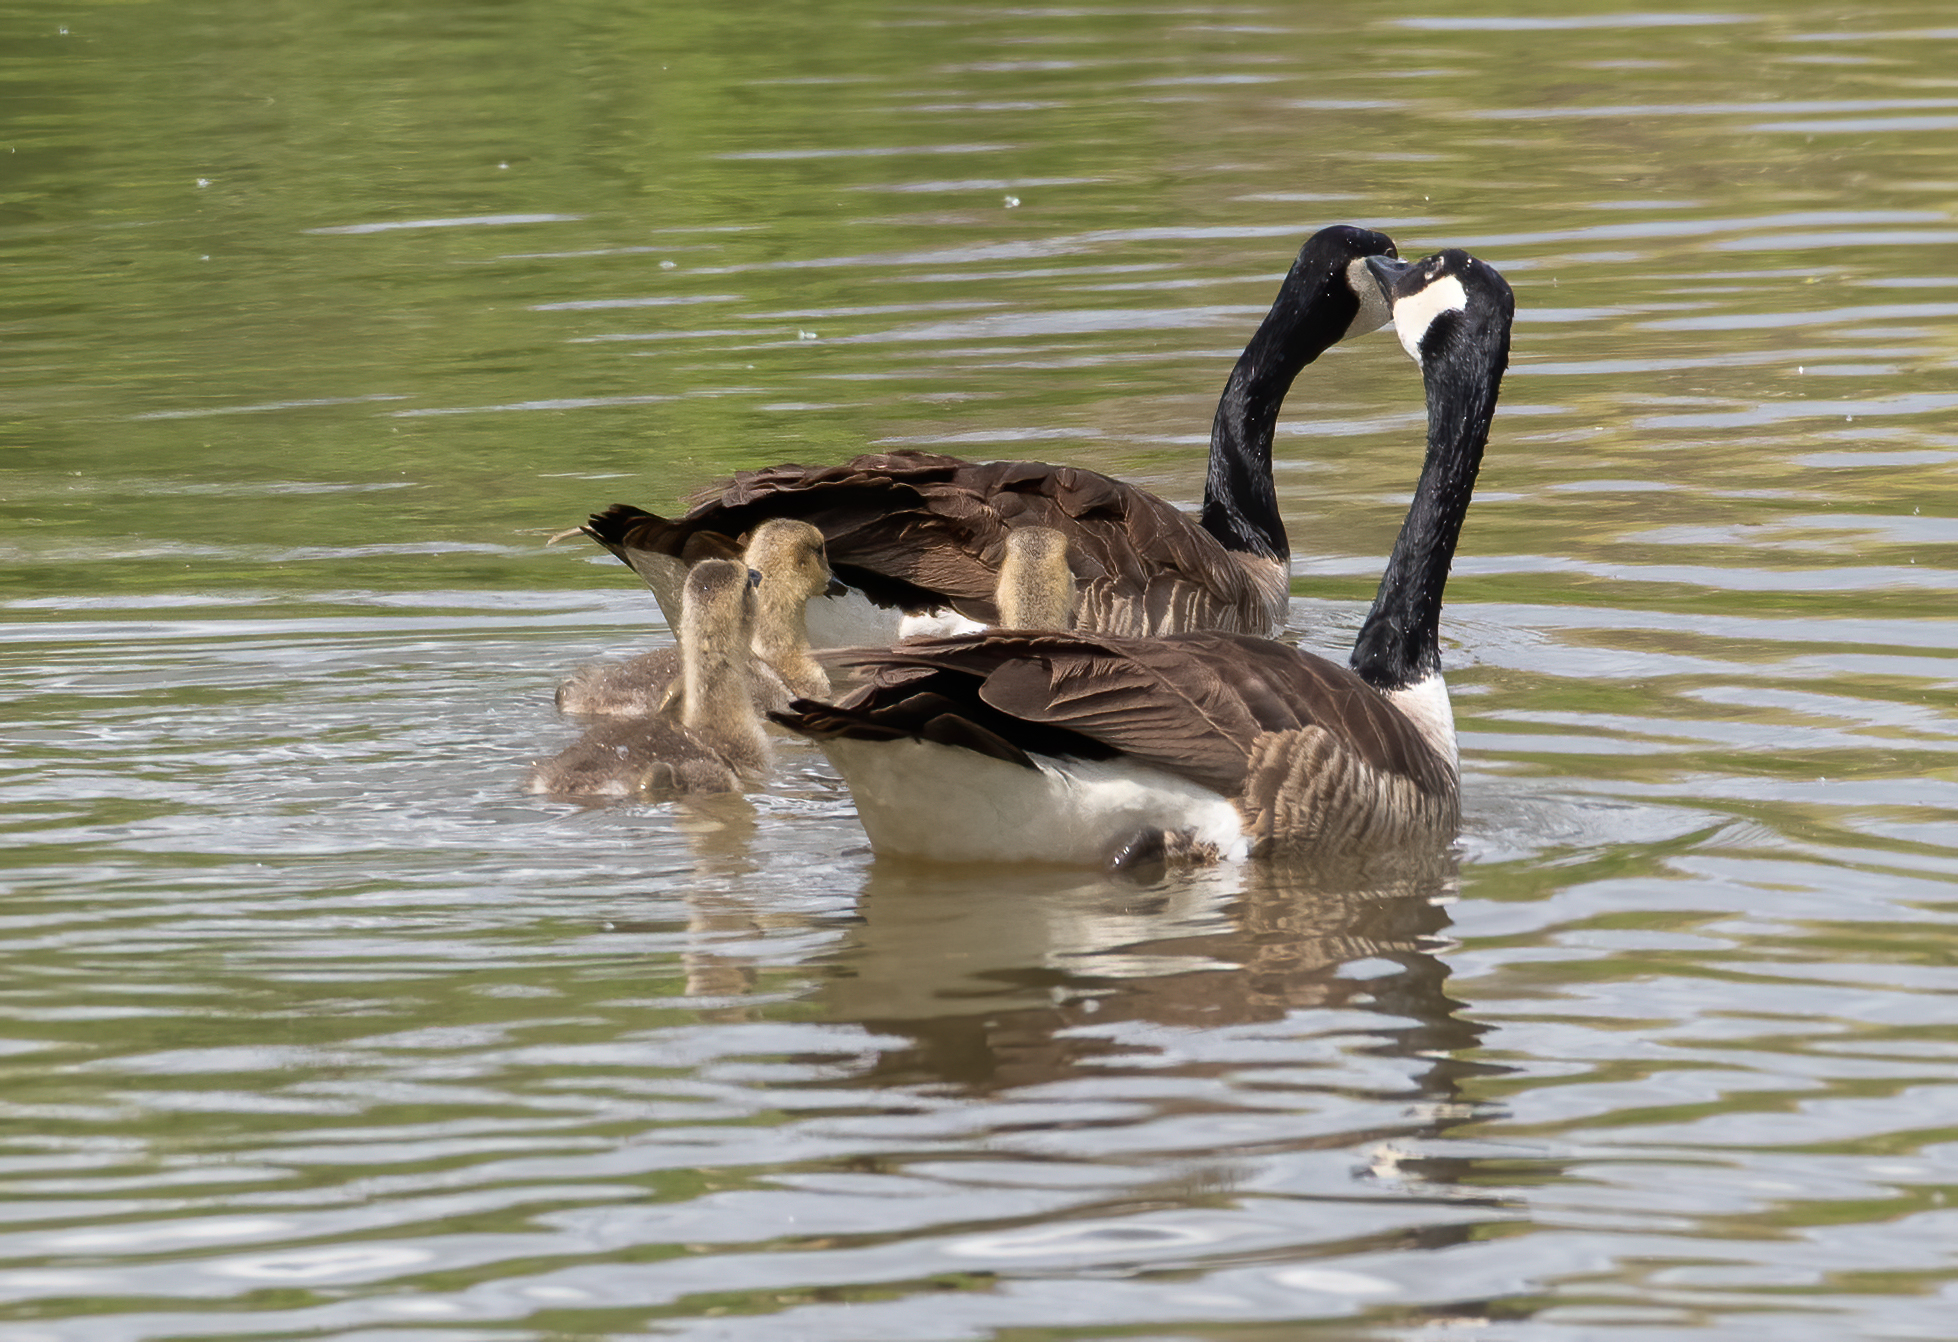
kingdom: Animalia
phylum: Chordata
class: Aves
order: Anseriformes
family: Anatidae
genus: Branta
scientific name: Branta canadensis
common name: Canada goose
